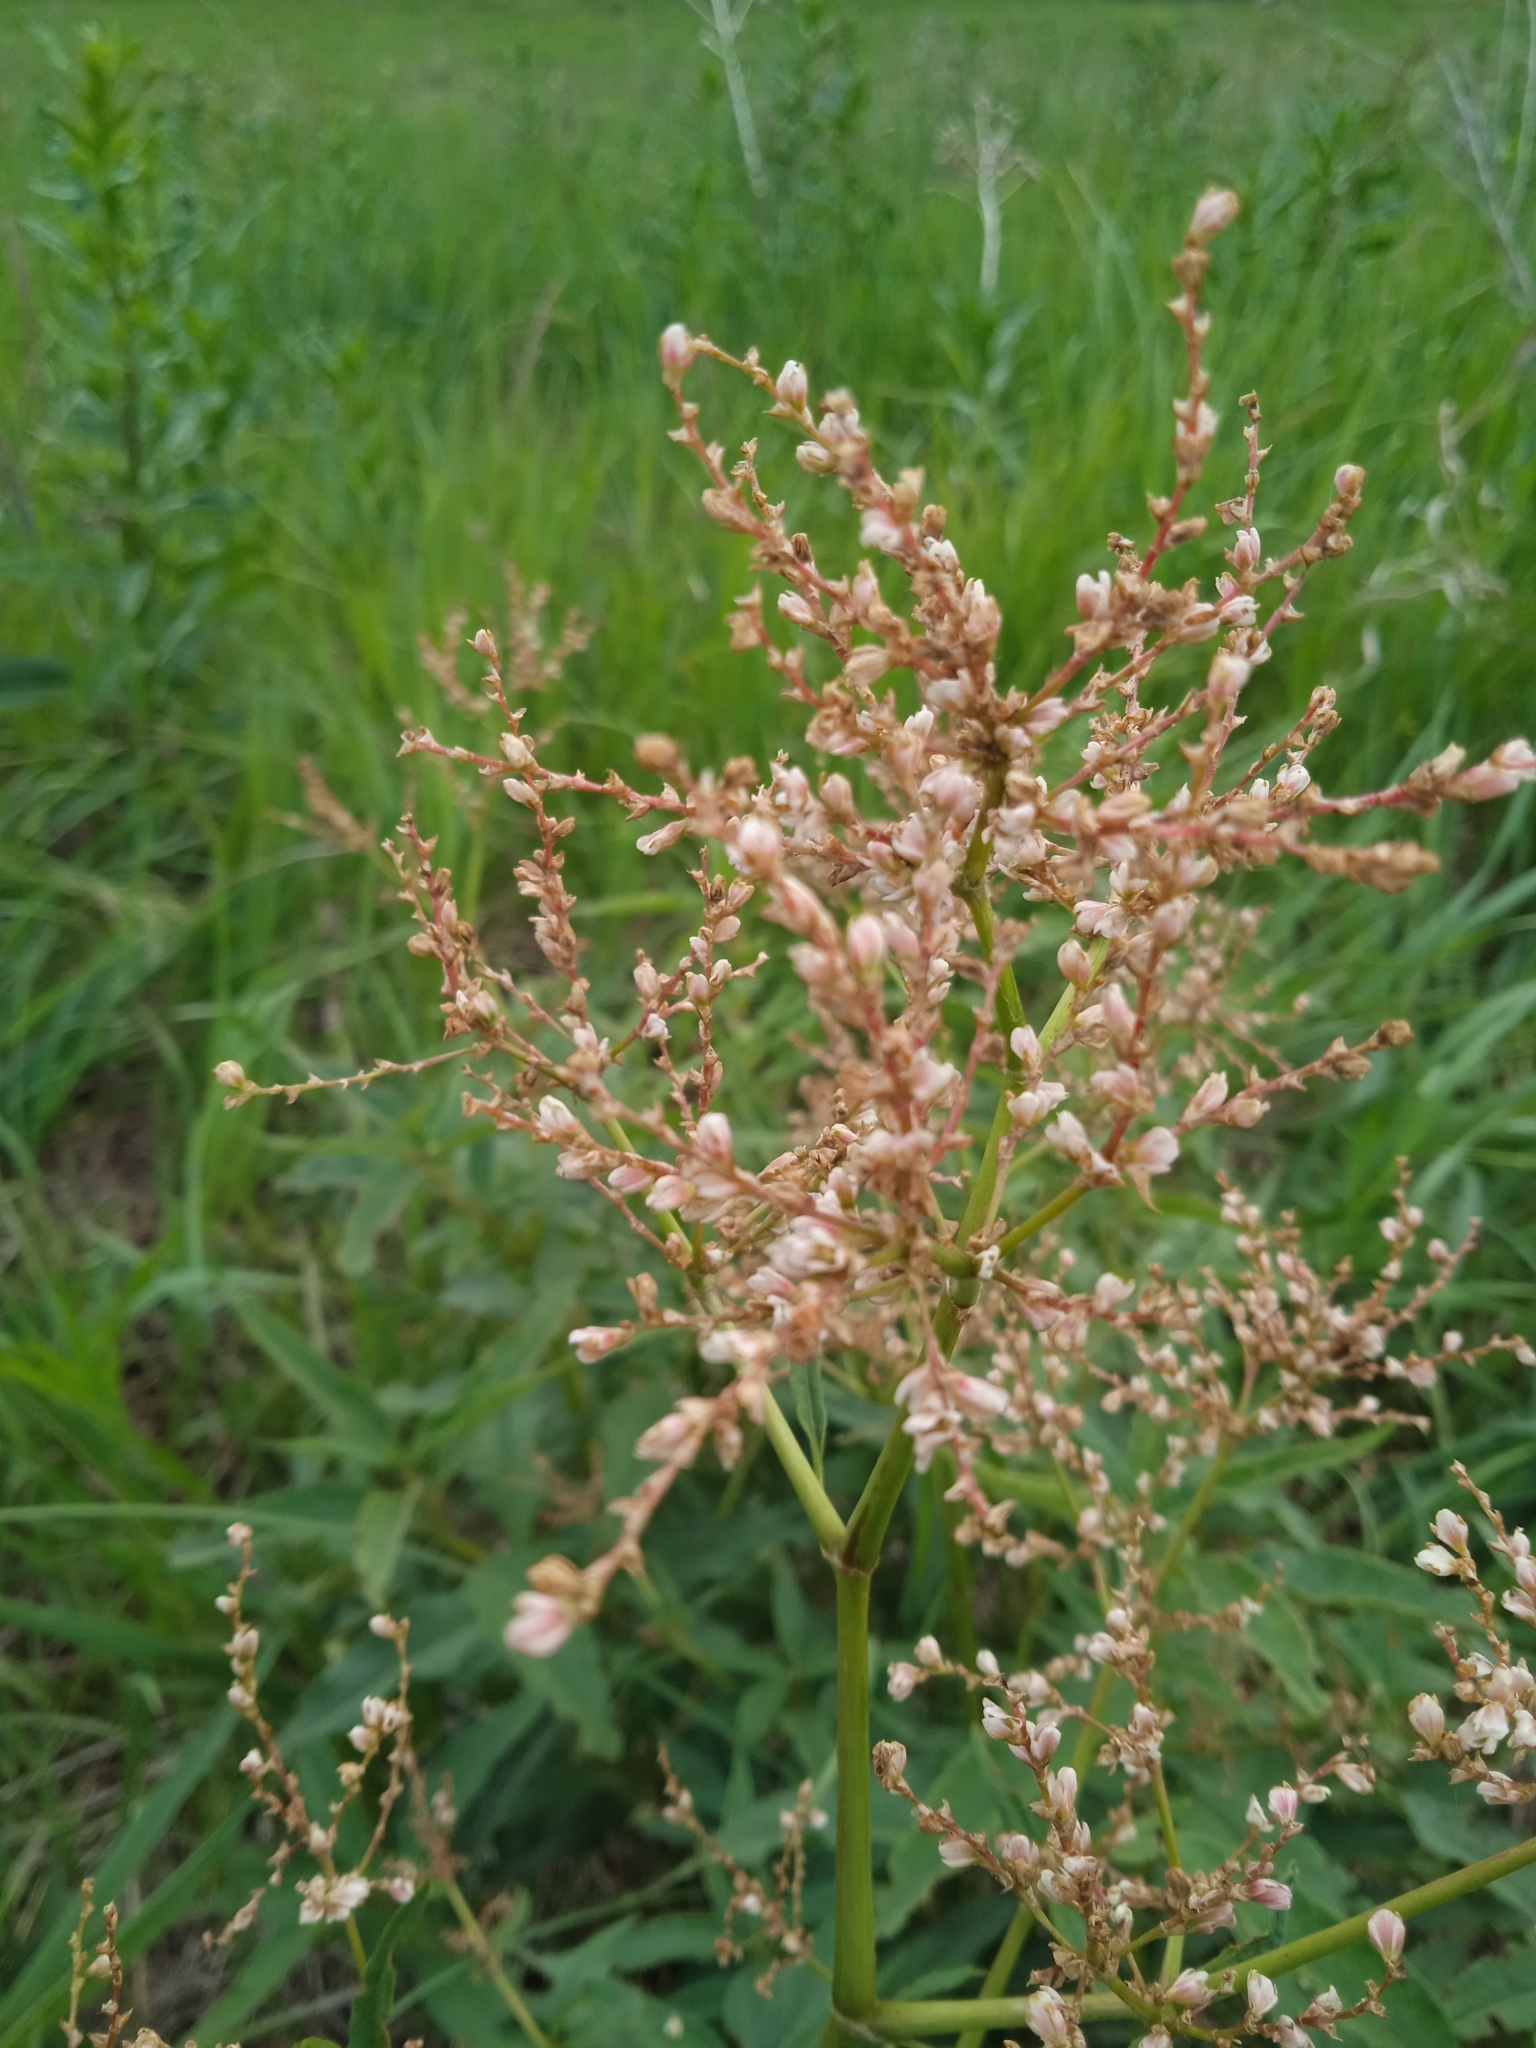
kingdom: Plantae
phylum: Tracheophyta
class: Magnoliopsida
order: Caryophyllales
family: Polygonaceae
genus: Koenigia
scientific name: Koenigia alpina
